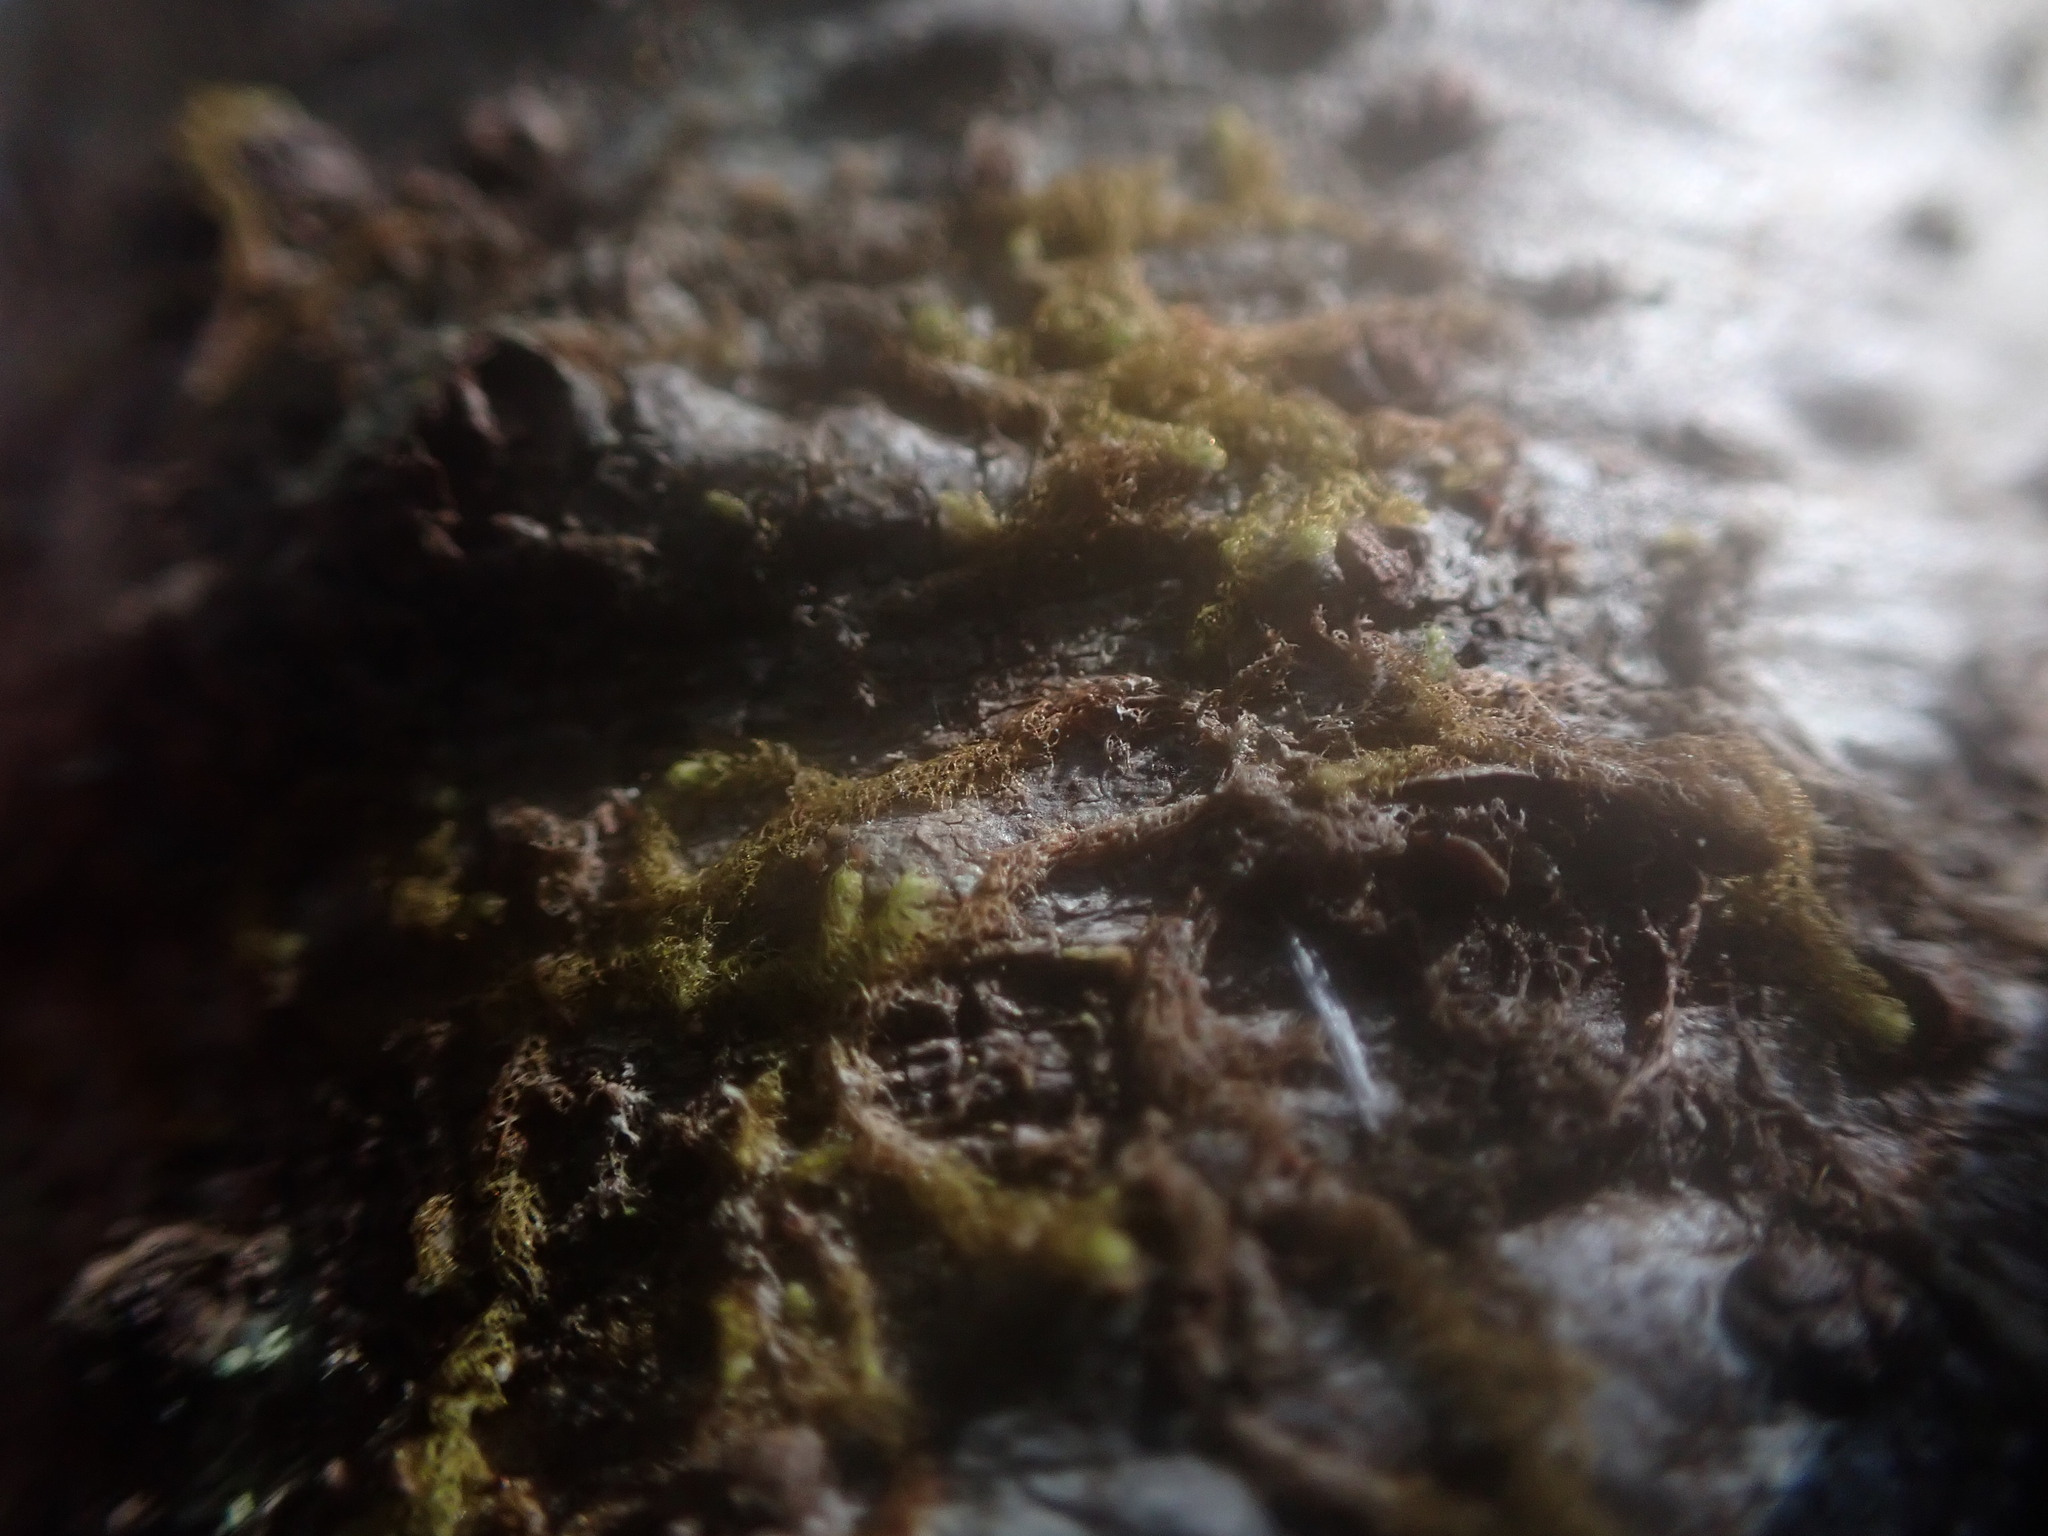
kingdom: Plantae
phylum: Marchantiophyta
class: Jungermanniopsida
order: Ptilidiales
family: Ptilidiaceae
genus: Ptilidium
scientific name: Ptilidium californicum
